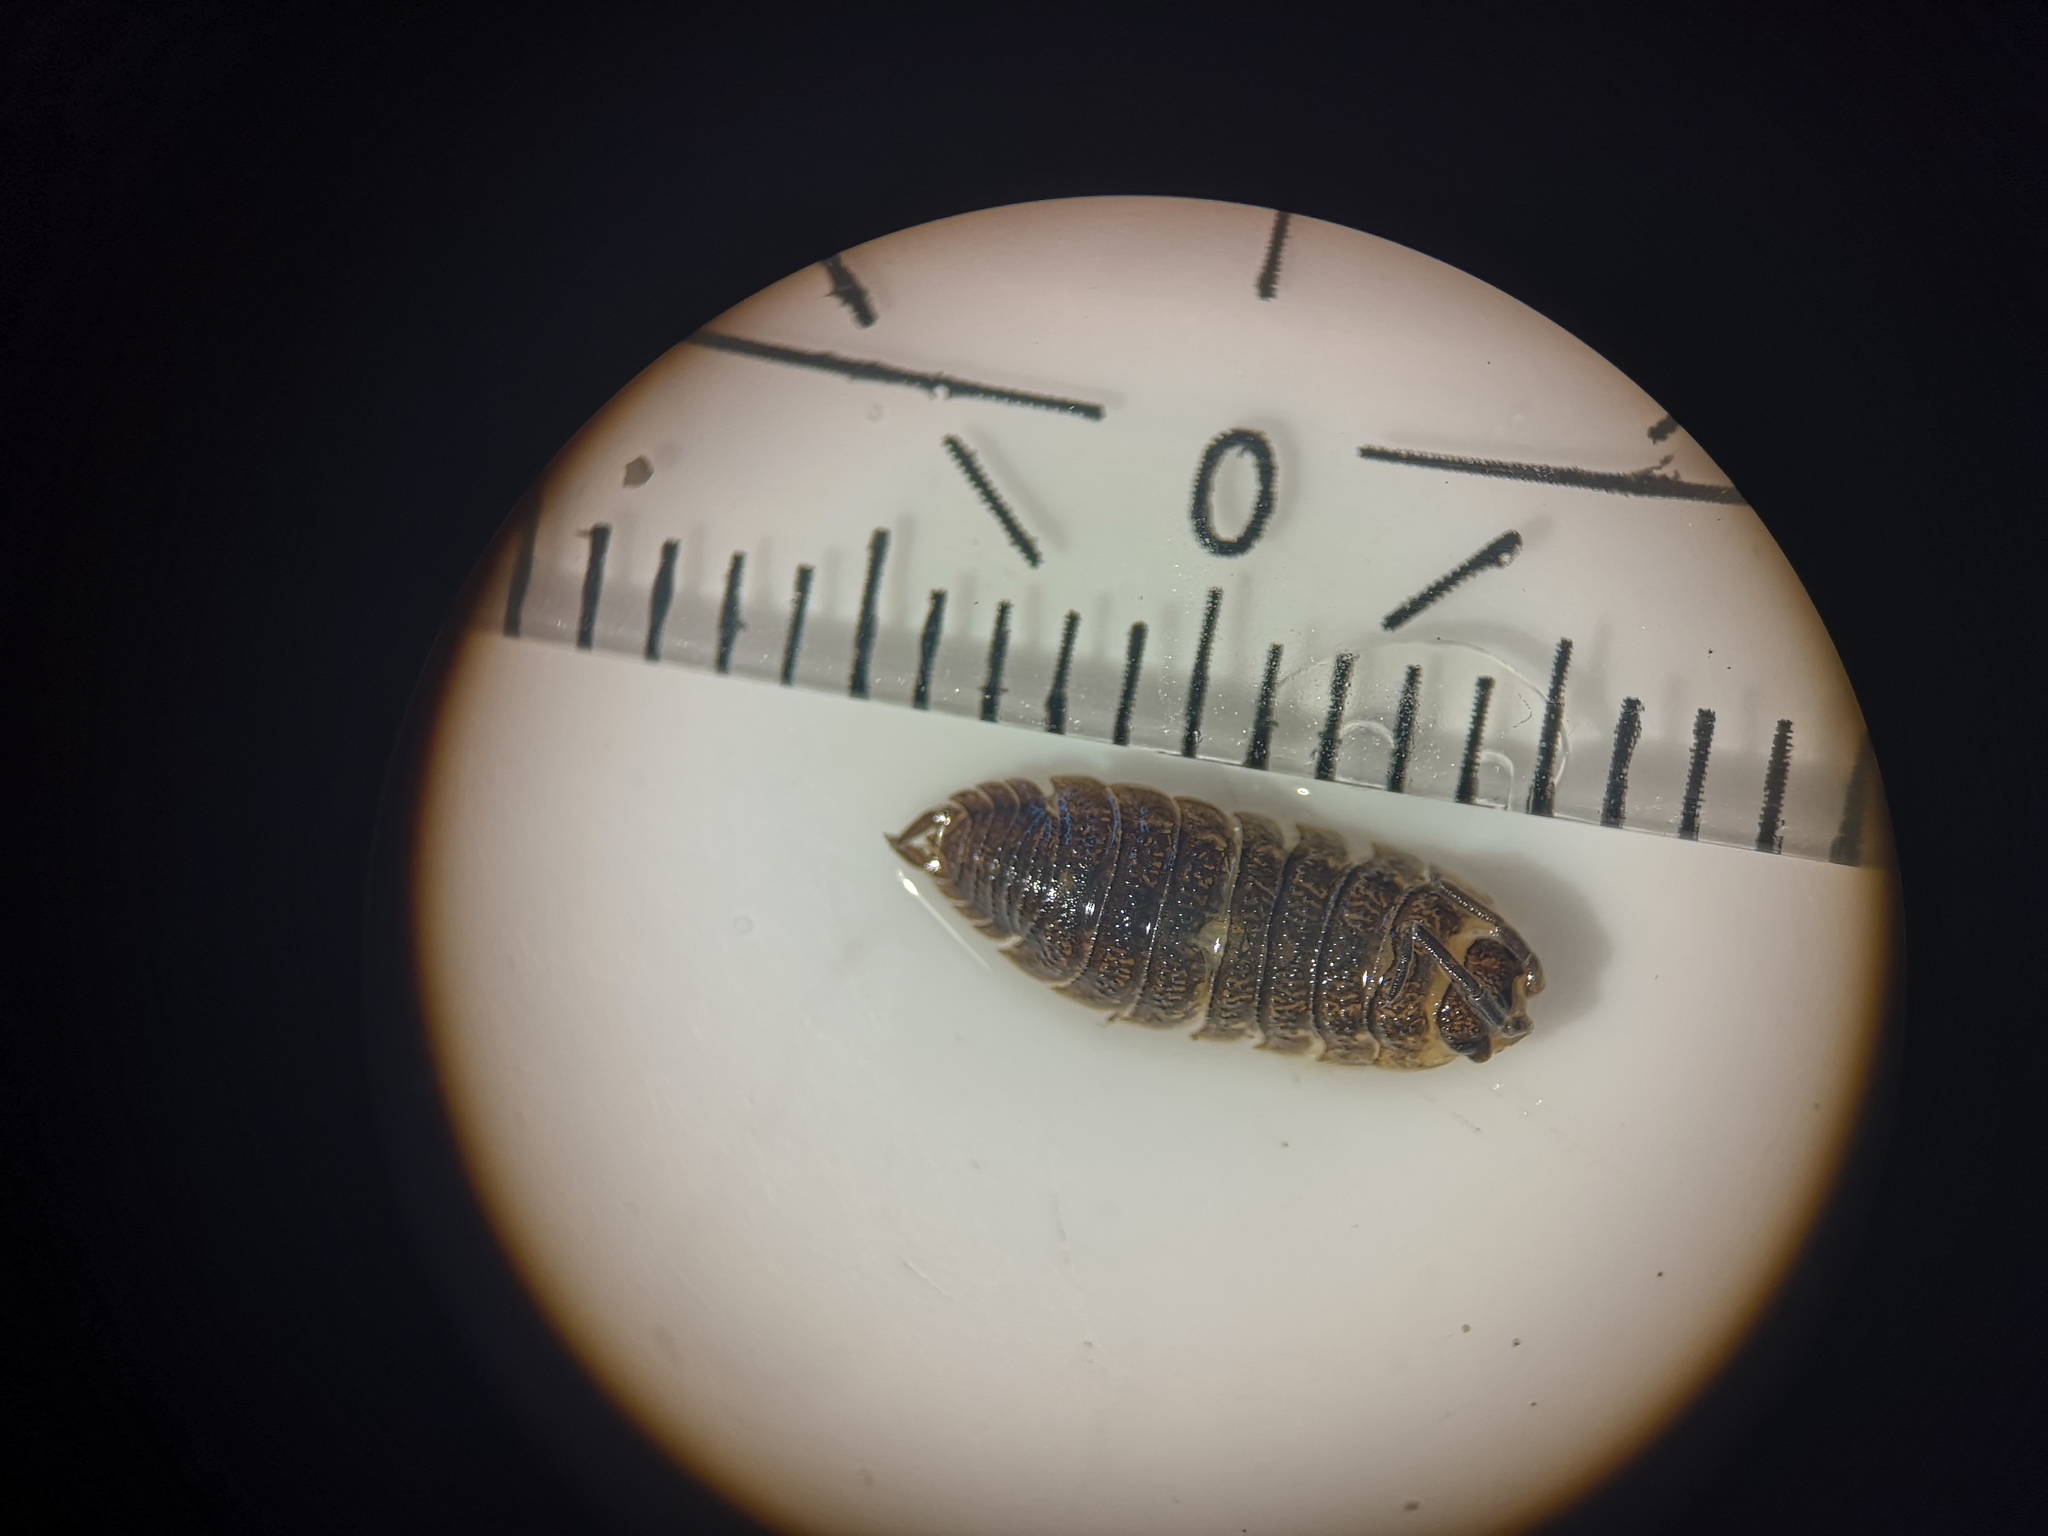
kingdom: Animalia
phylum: Arthropoda
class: Malacostraca
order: Isopoda
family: Porcellionidae
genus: Porcellio
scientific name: Porcellio scaber
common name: Common rough woodlouse
